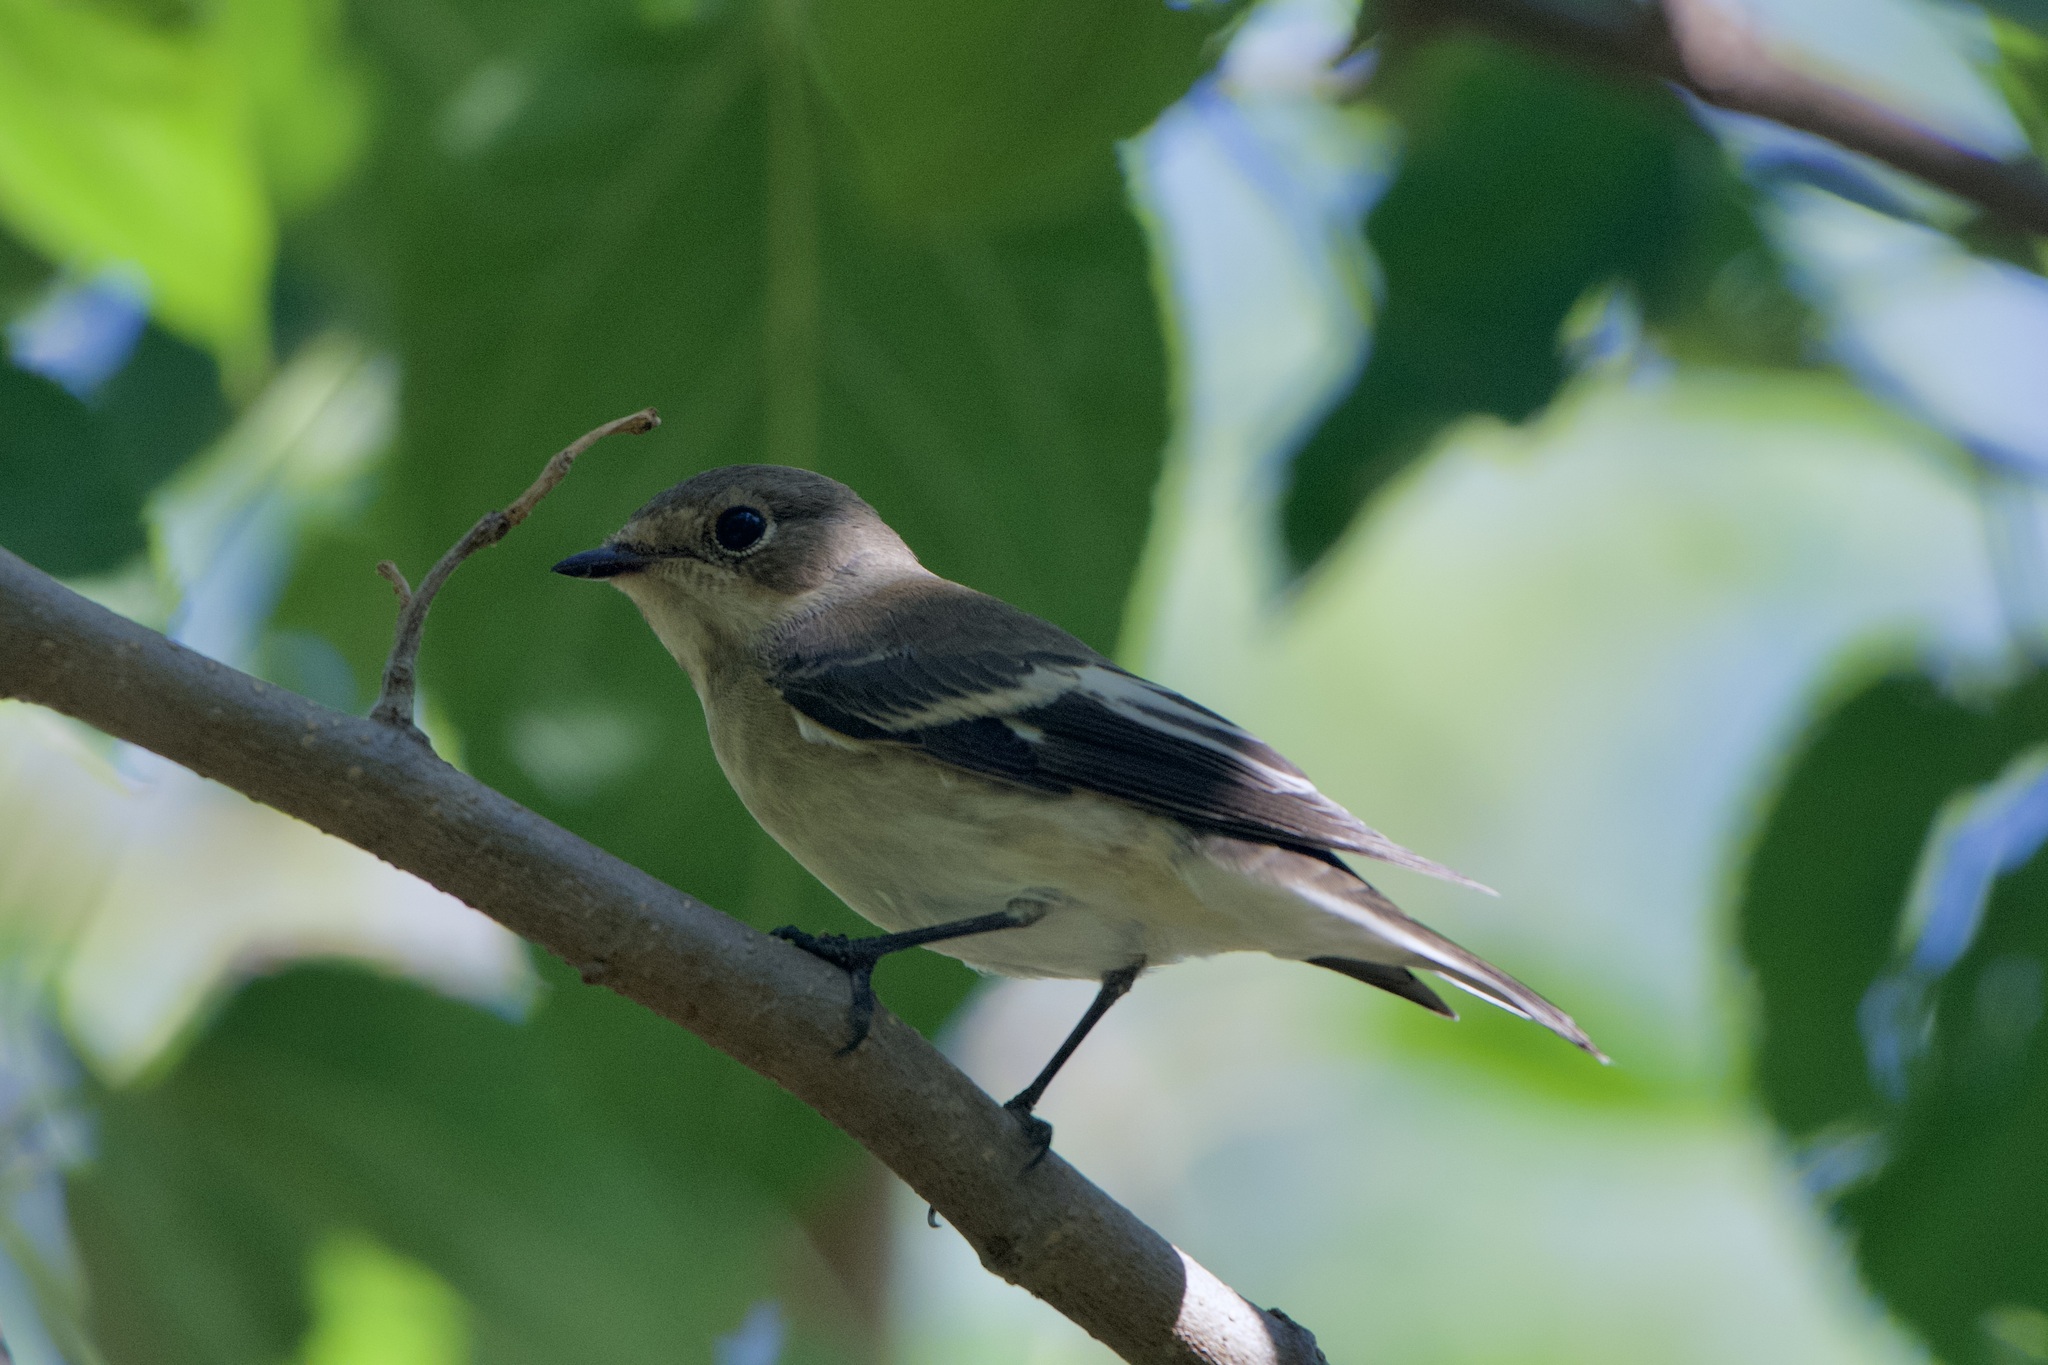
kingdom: Animalia
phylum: Chordata
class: Aves
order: Passeriformes
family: Muscicapidae
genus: Ficedula
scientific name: Ficedula hypoleuca
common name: European pied flycatcher
